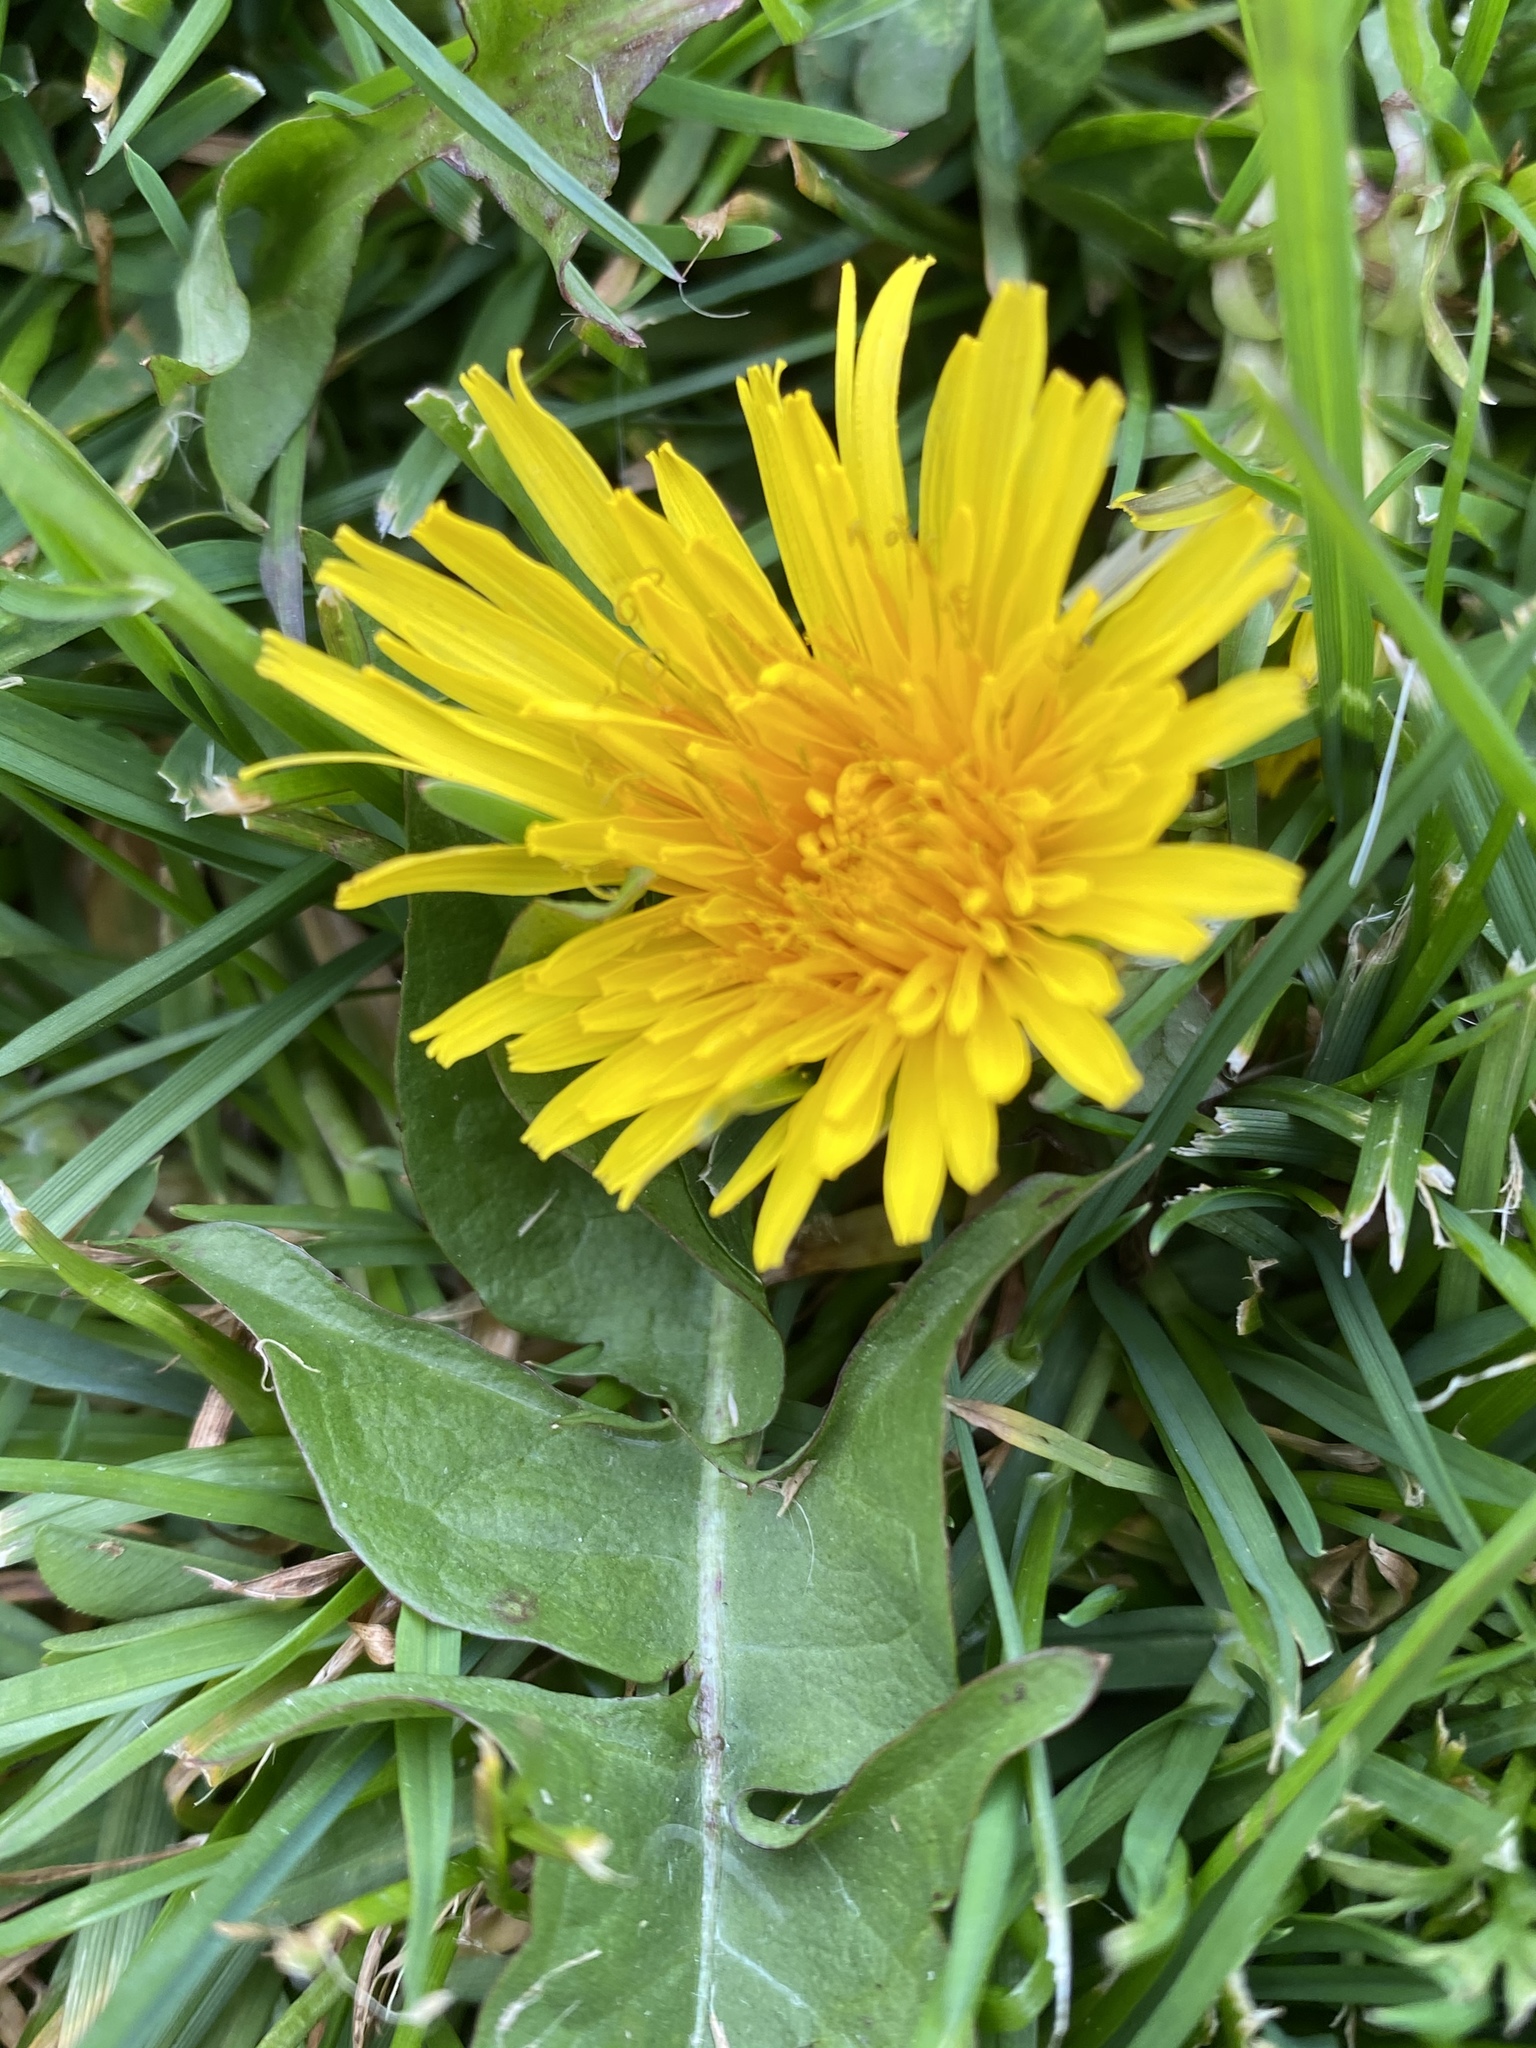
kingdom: Plantae
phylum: Tracheophyta
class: Magnoliopsida
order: Asterales
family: Asteraceae
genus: Taraxacum
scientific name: Taraxacum officinale
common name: Common dandelion
